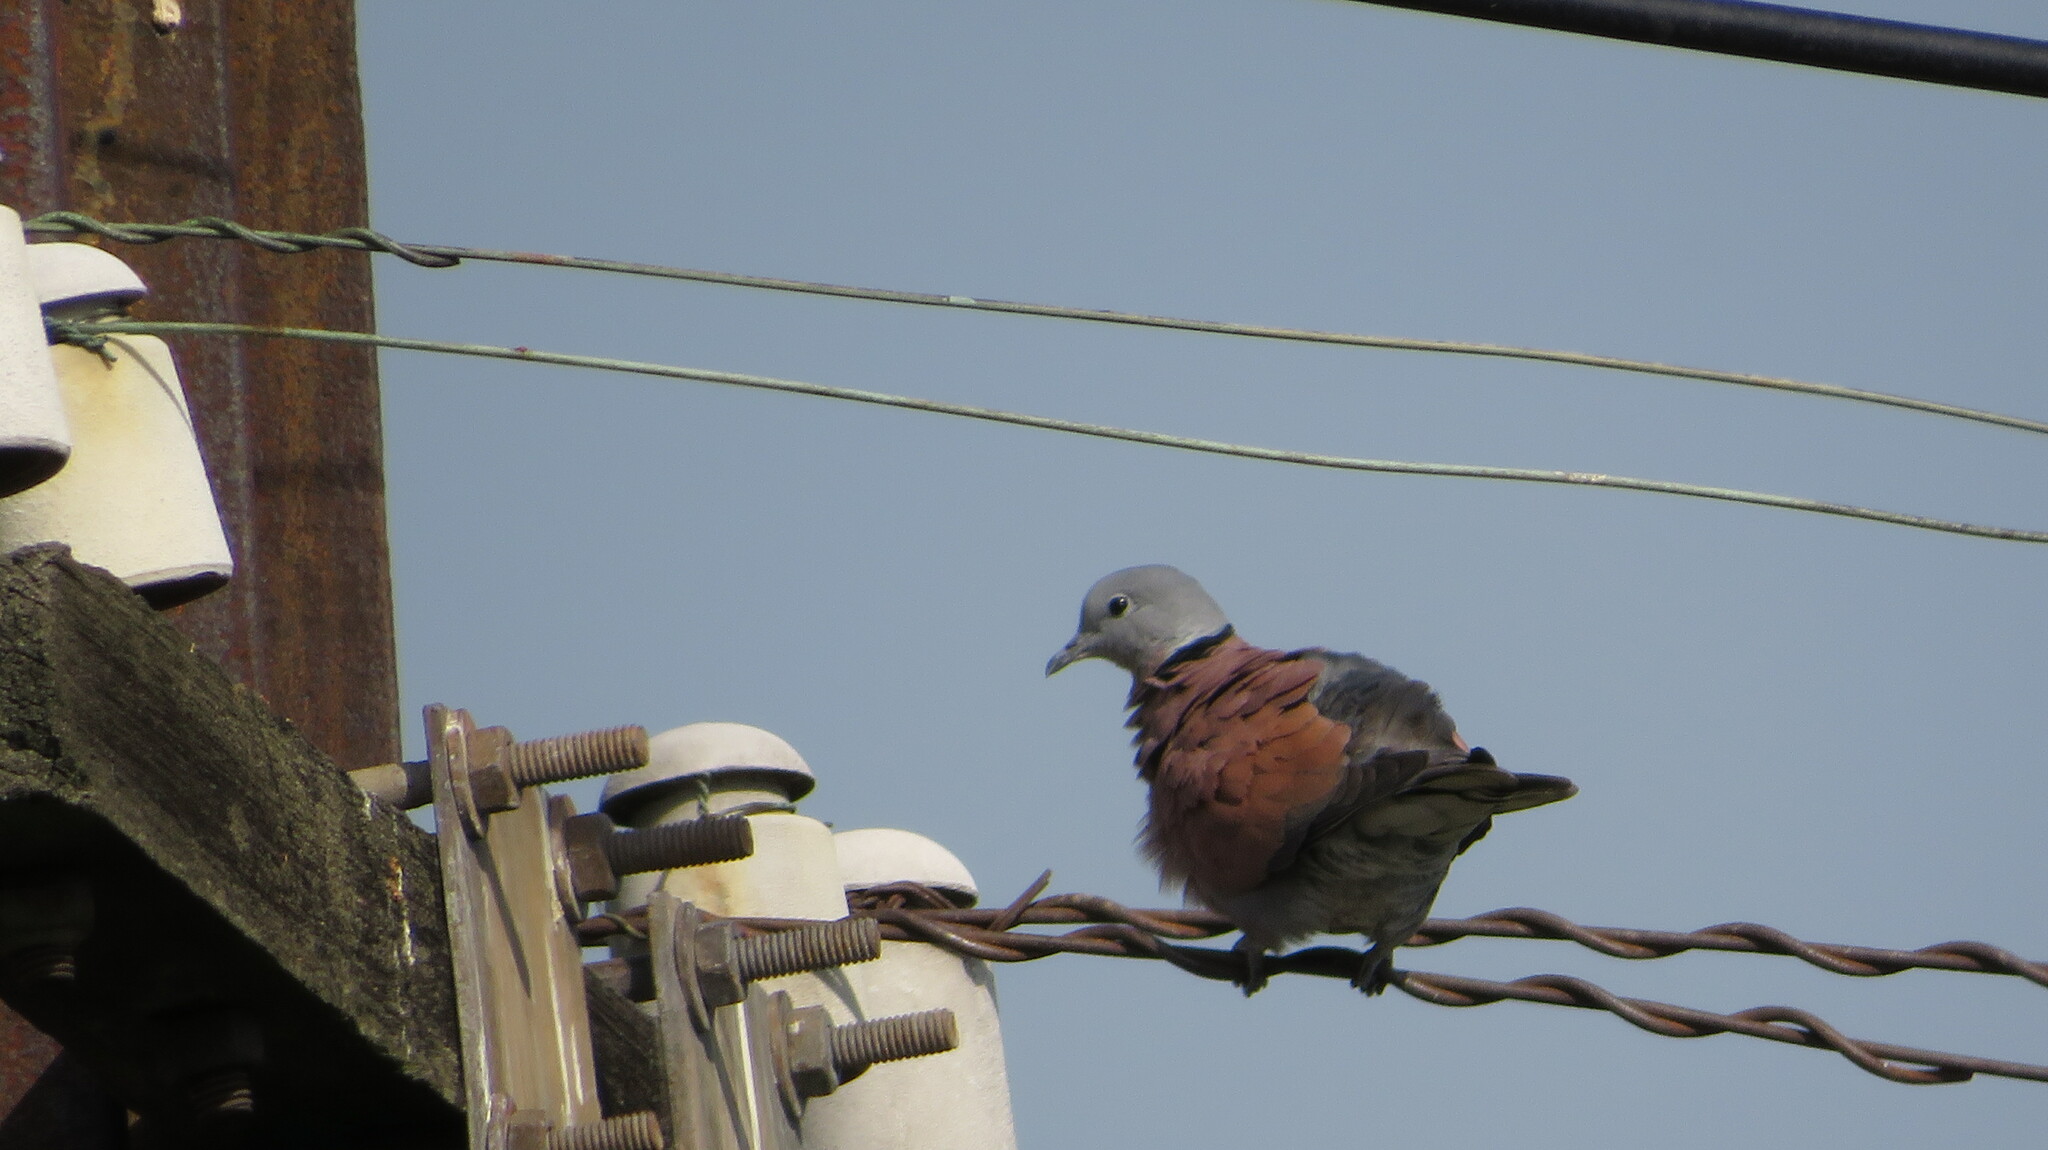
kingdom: Animalia
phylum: Chordata
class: Aves
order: Columbiformes
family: Columbidae
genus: Streptopelia
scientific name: Streptopelia tranquebarica
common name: Red turtle dove
